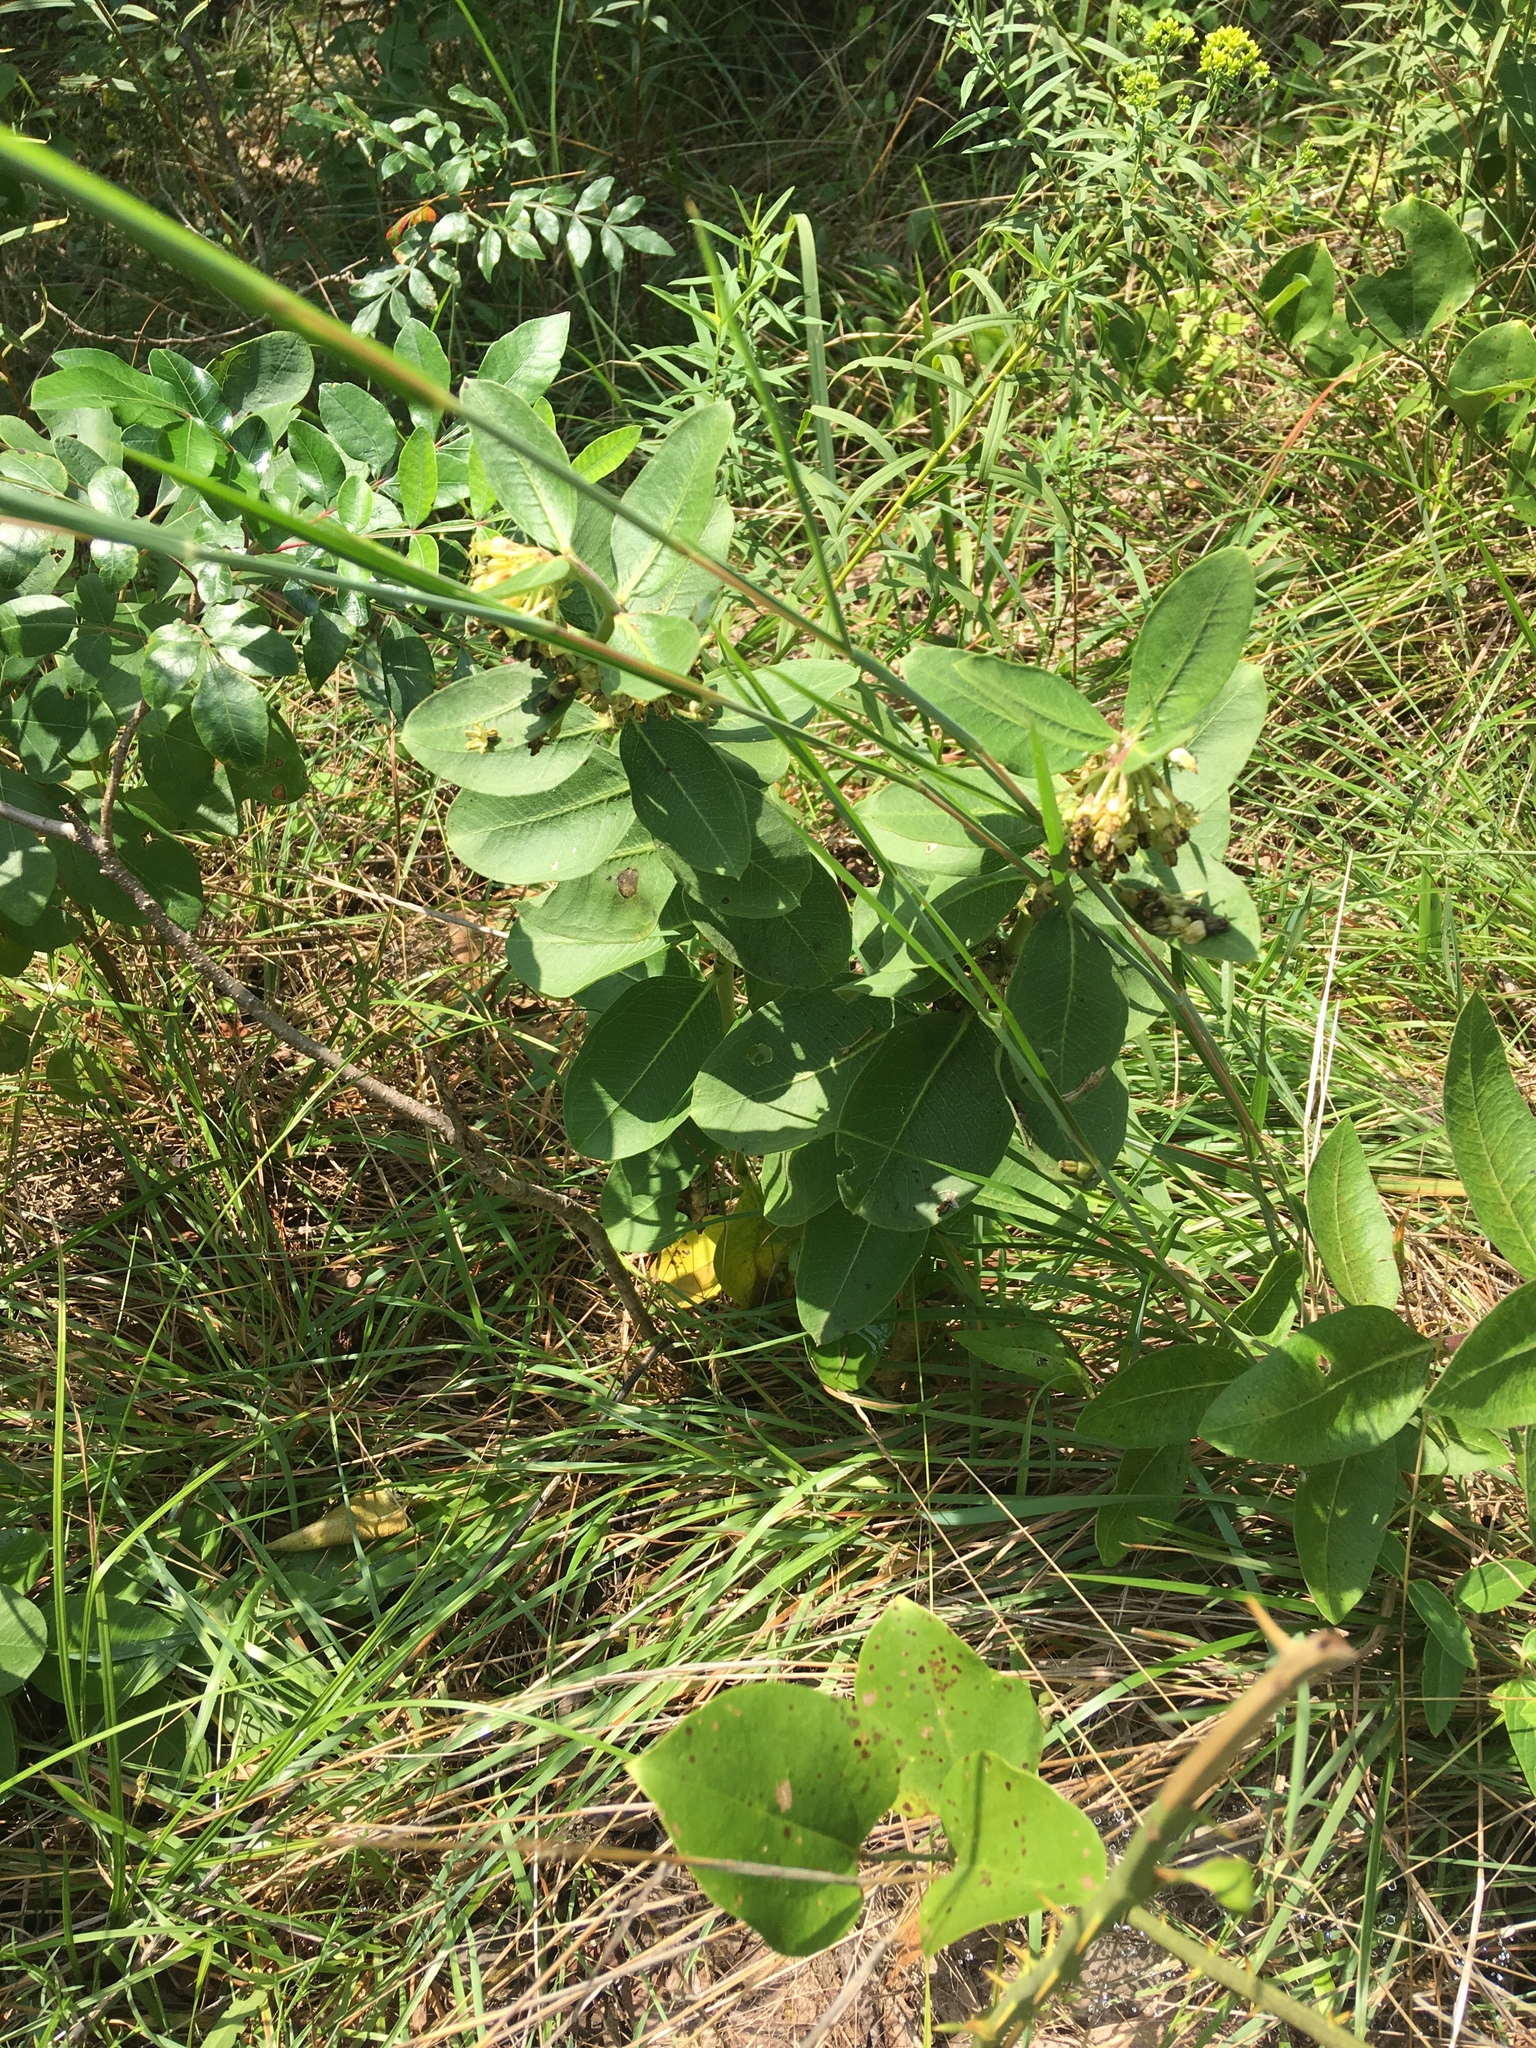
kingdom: Plantae
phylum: Tracheophyta
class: Magnoliopsida
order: Gentianales
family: Apocynaceae
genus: Asclepias
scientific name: Asclepias viridiflora
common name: Green comet milkweed
